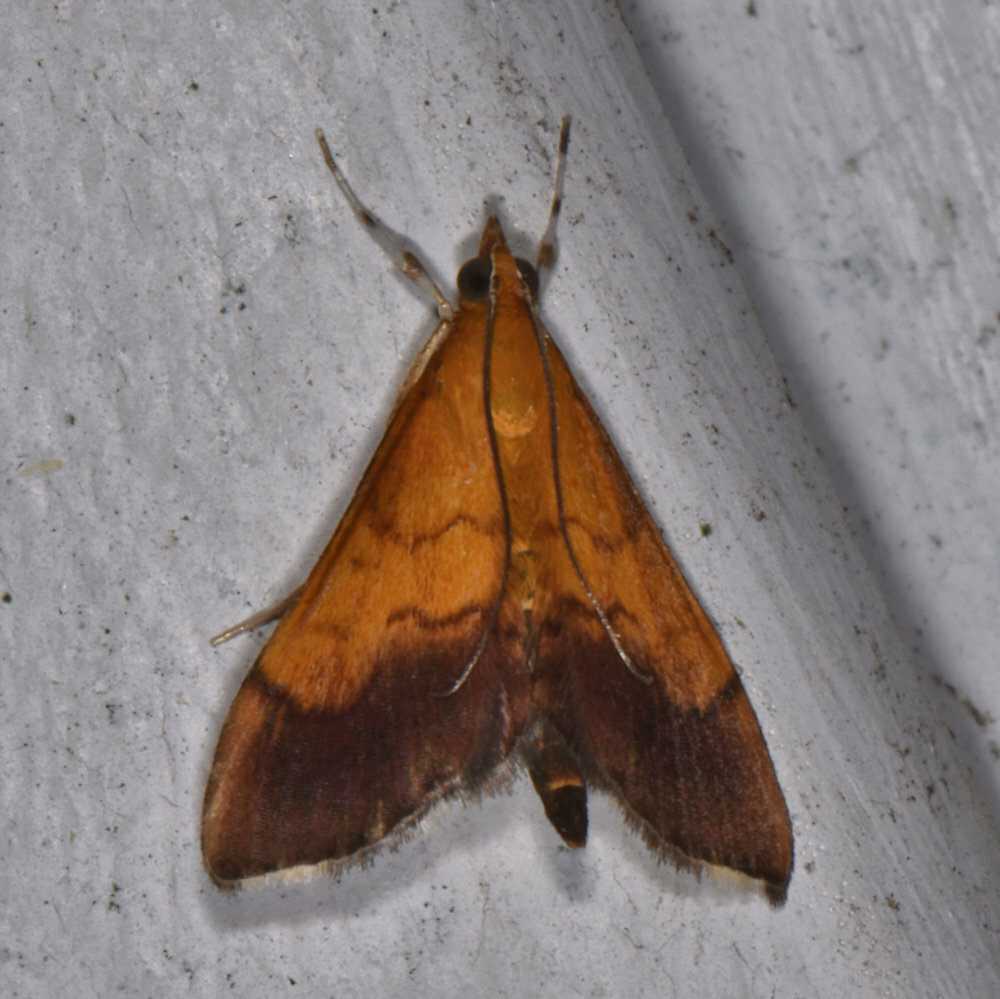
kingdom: Animalia
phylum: Arthropoda
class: Insecta
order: Lepidoptera
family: Crambidae
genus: Pyrausta
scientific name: Pyrausta bicoloralis
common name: Bicolored pyrausta moth
